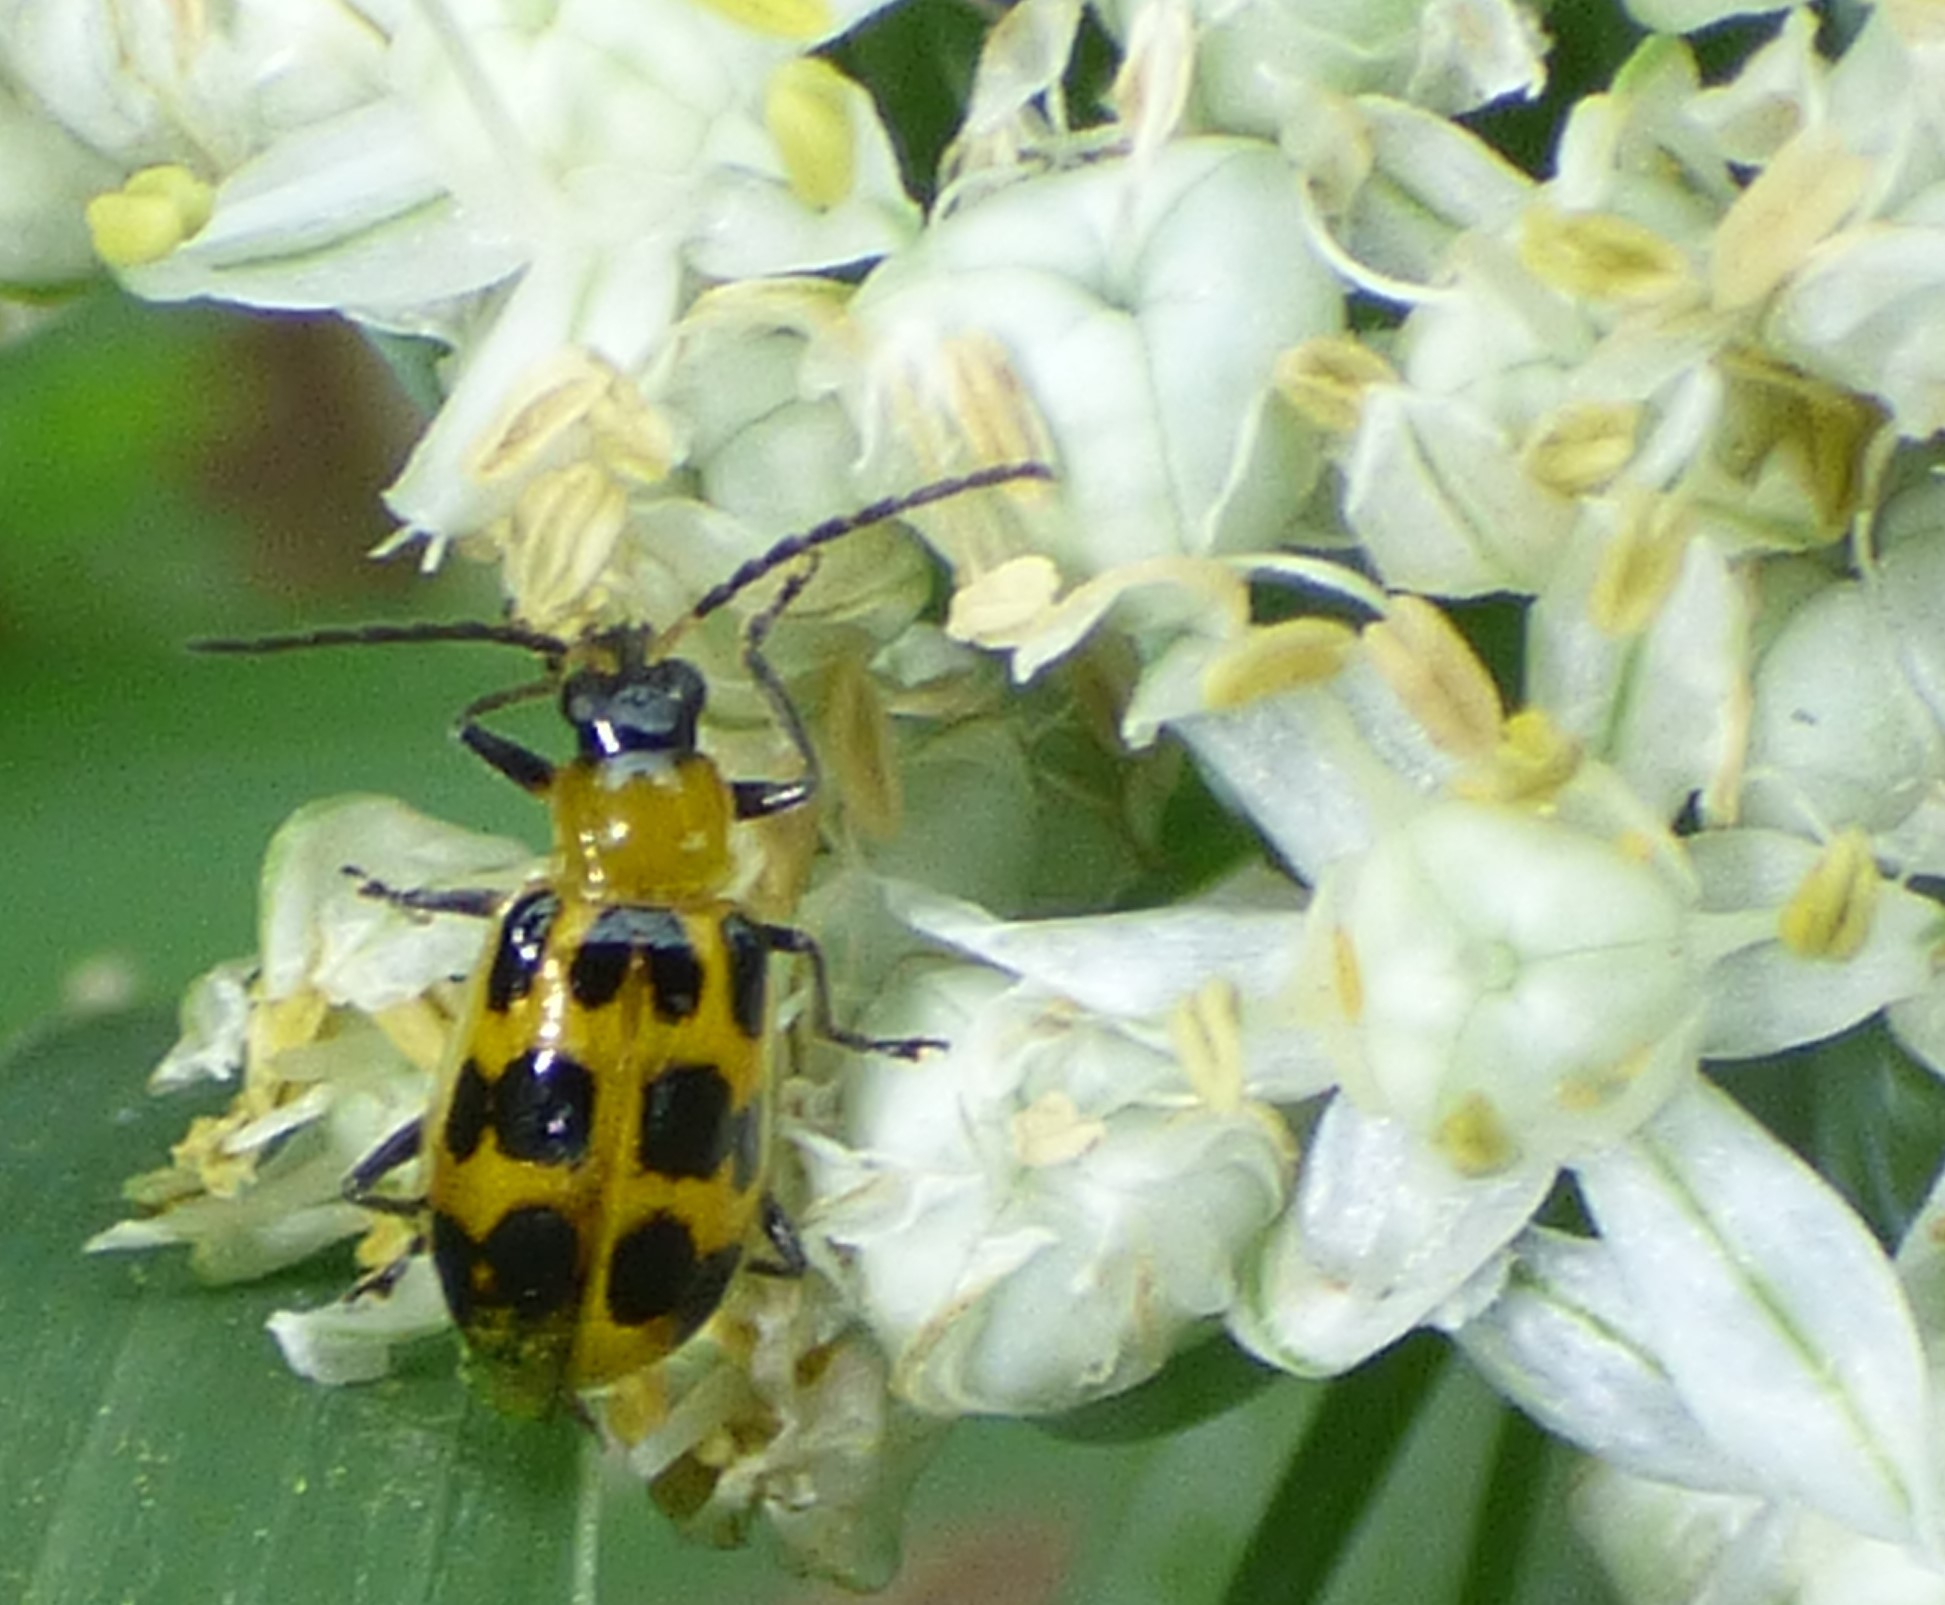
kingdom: Animalia
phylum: Arthropoda
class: Insecta
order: Coleoptera
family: Chrysomelidae
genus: Diabrotica
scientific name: Diabrotica undecimpunctata
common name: Spotted cucumber beetle
